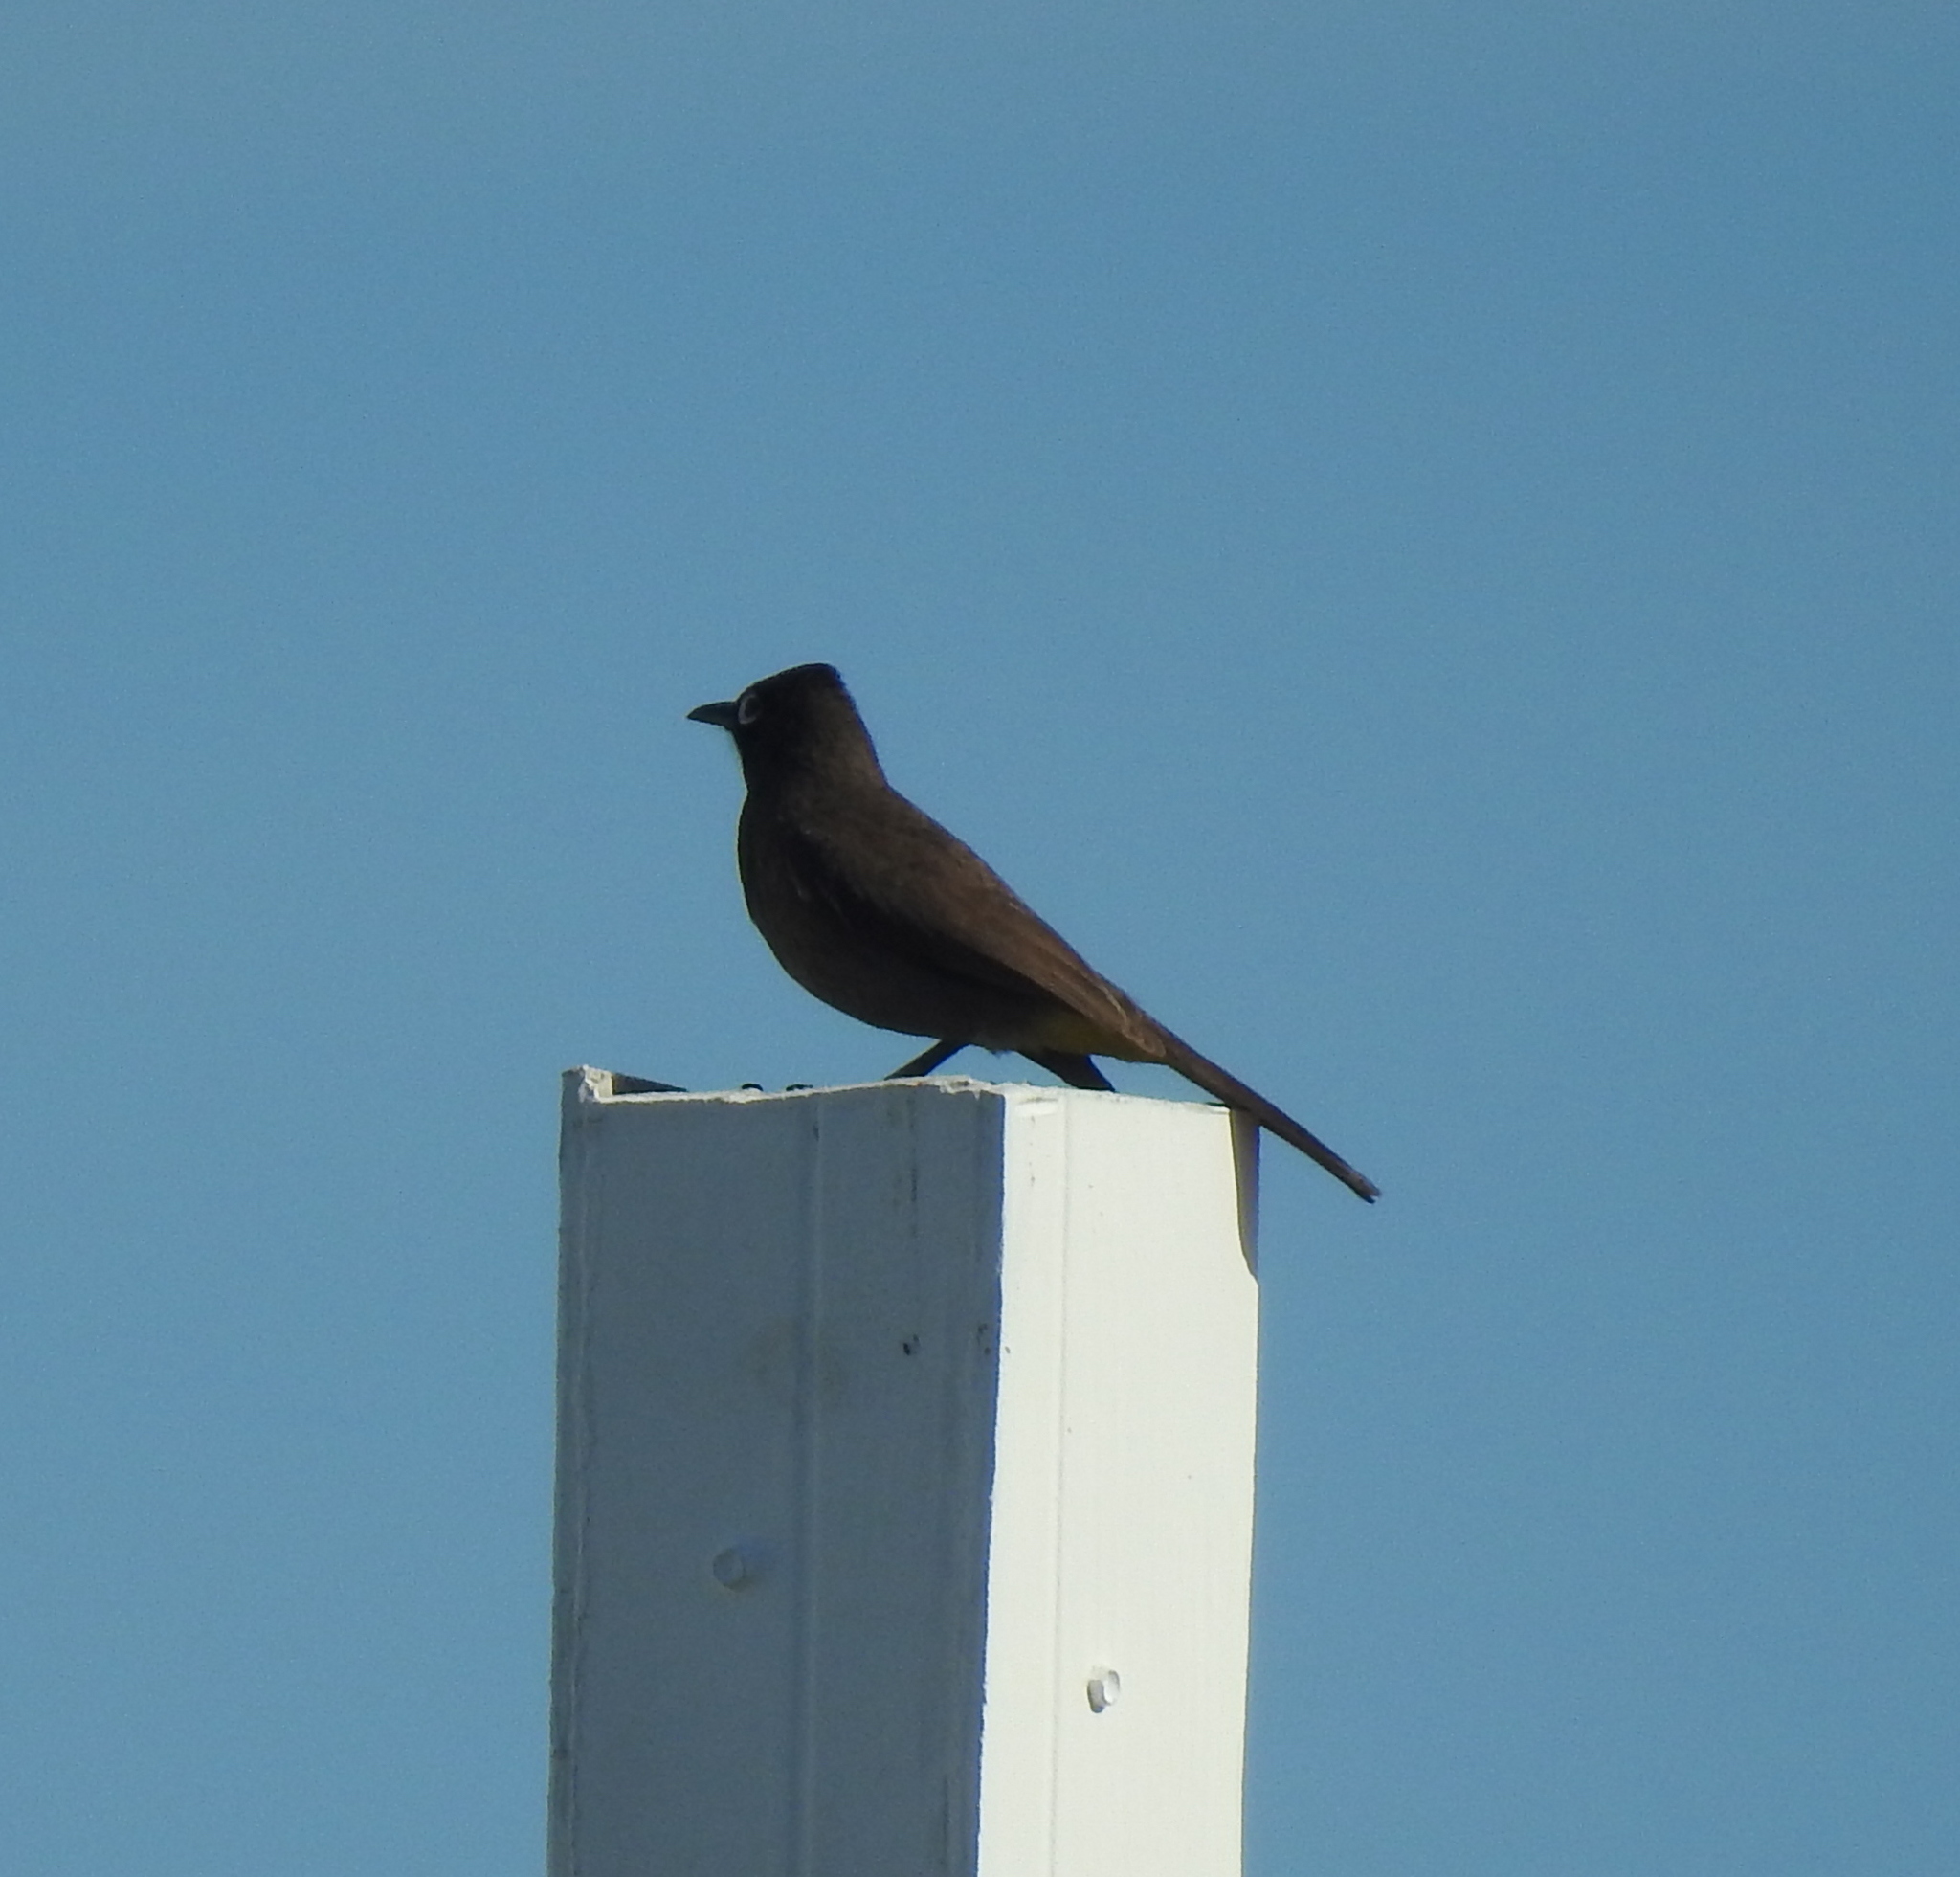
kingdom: Animalia
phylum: Chordata
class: Aves
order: Passeriformes
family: Pycnonotidae
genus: Pycnonotus
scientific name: Pycnonotus capensis
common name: Cape bulbul
